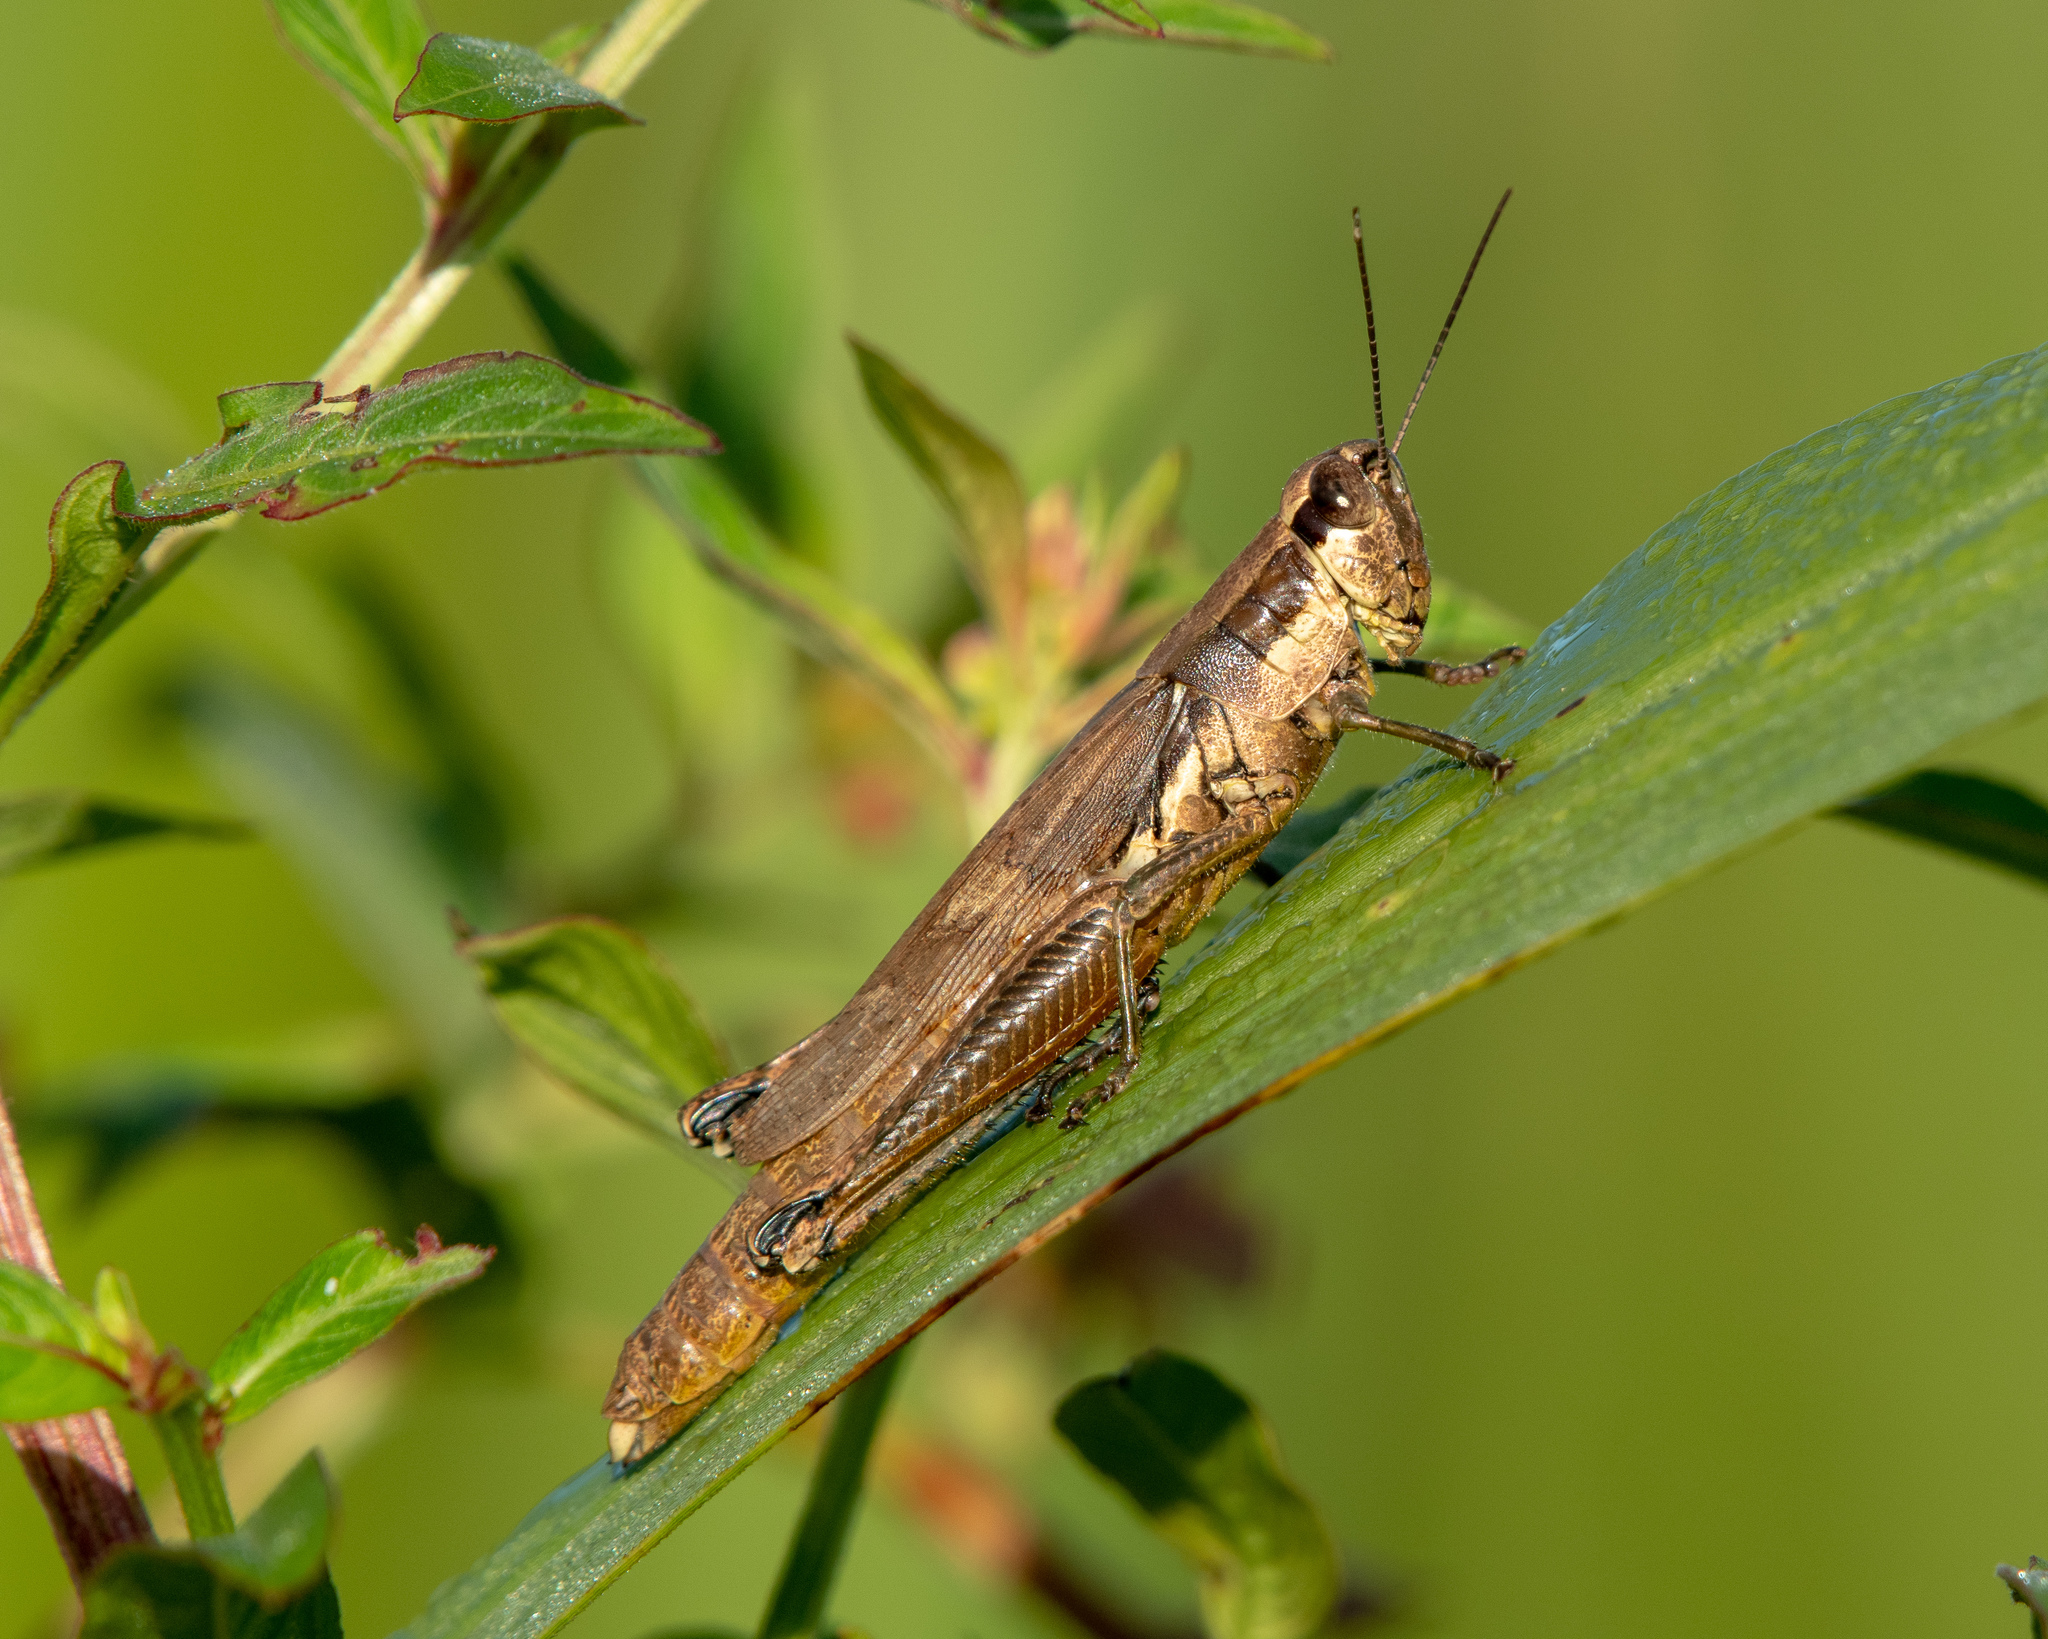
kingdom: Animalia
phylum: Arthropoda
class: Insecta
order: Orthoptera
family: Acrididae
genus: Paroxya
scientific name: Paroxya clavuligera
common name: Olive-green swamp grasshopper
